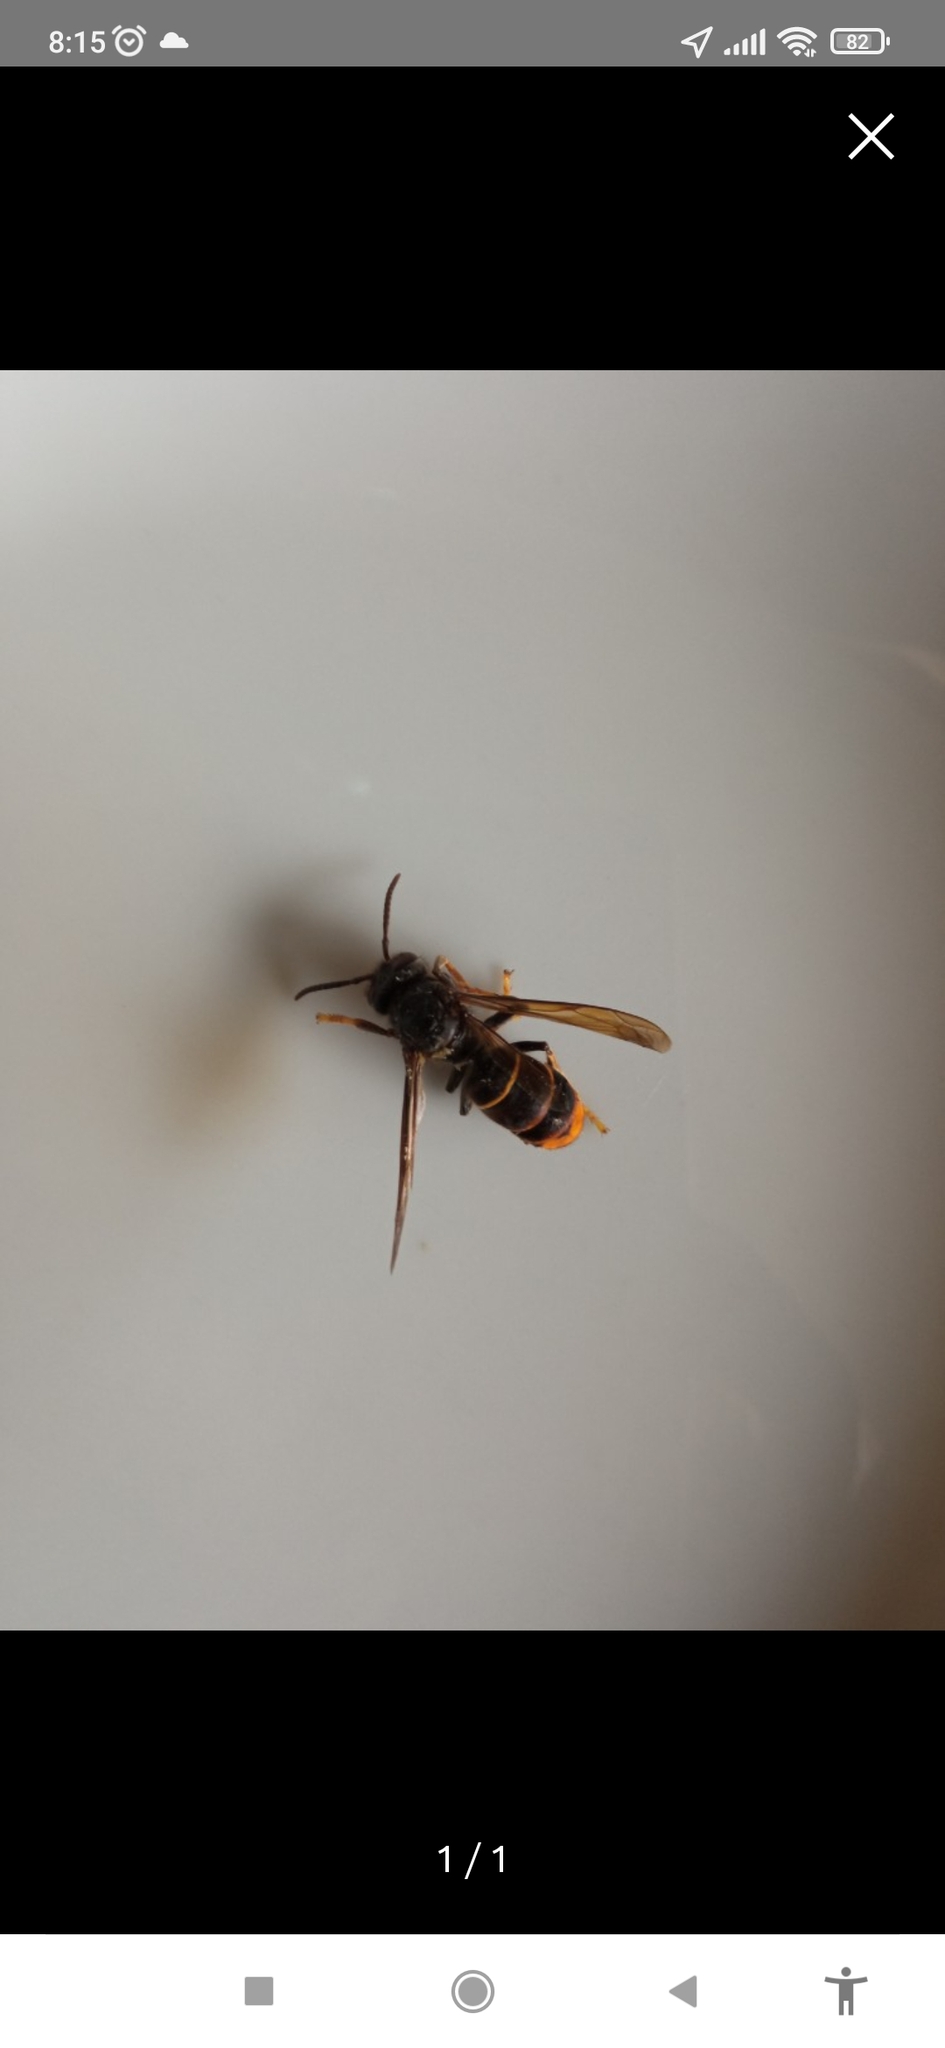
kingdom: Animalia
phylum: Arthropoda
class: Insecta
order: Hymenoptera
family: Vespidae
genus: Vespa
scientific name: Vespa velutina
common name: Asian hornet
